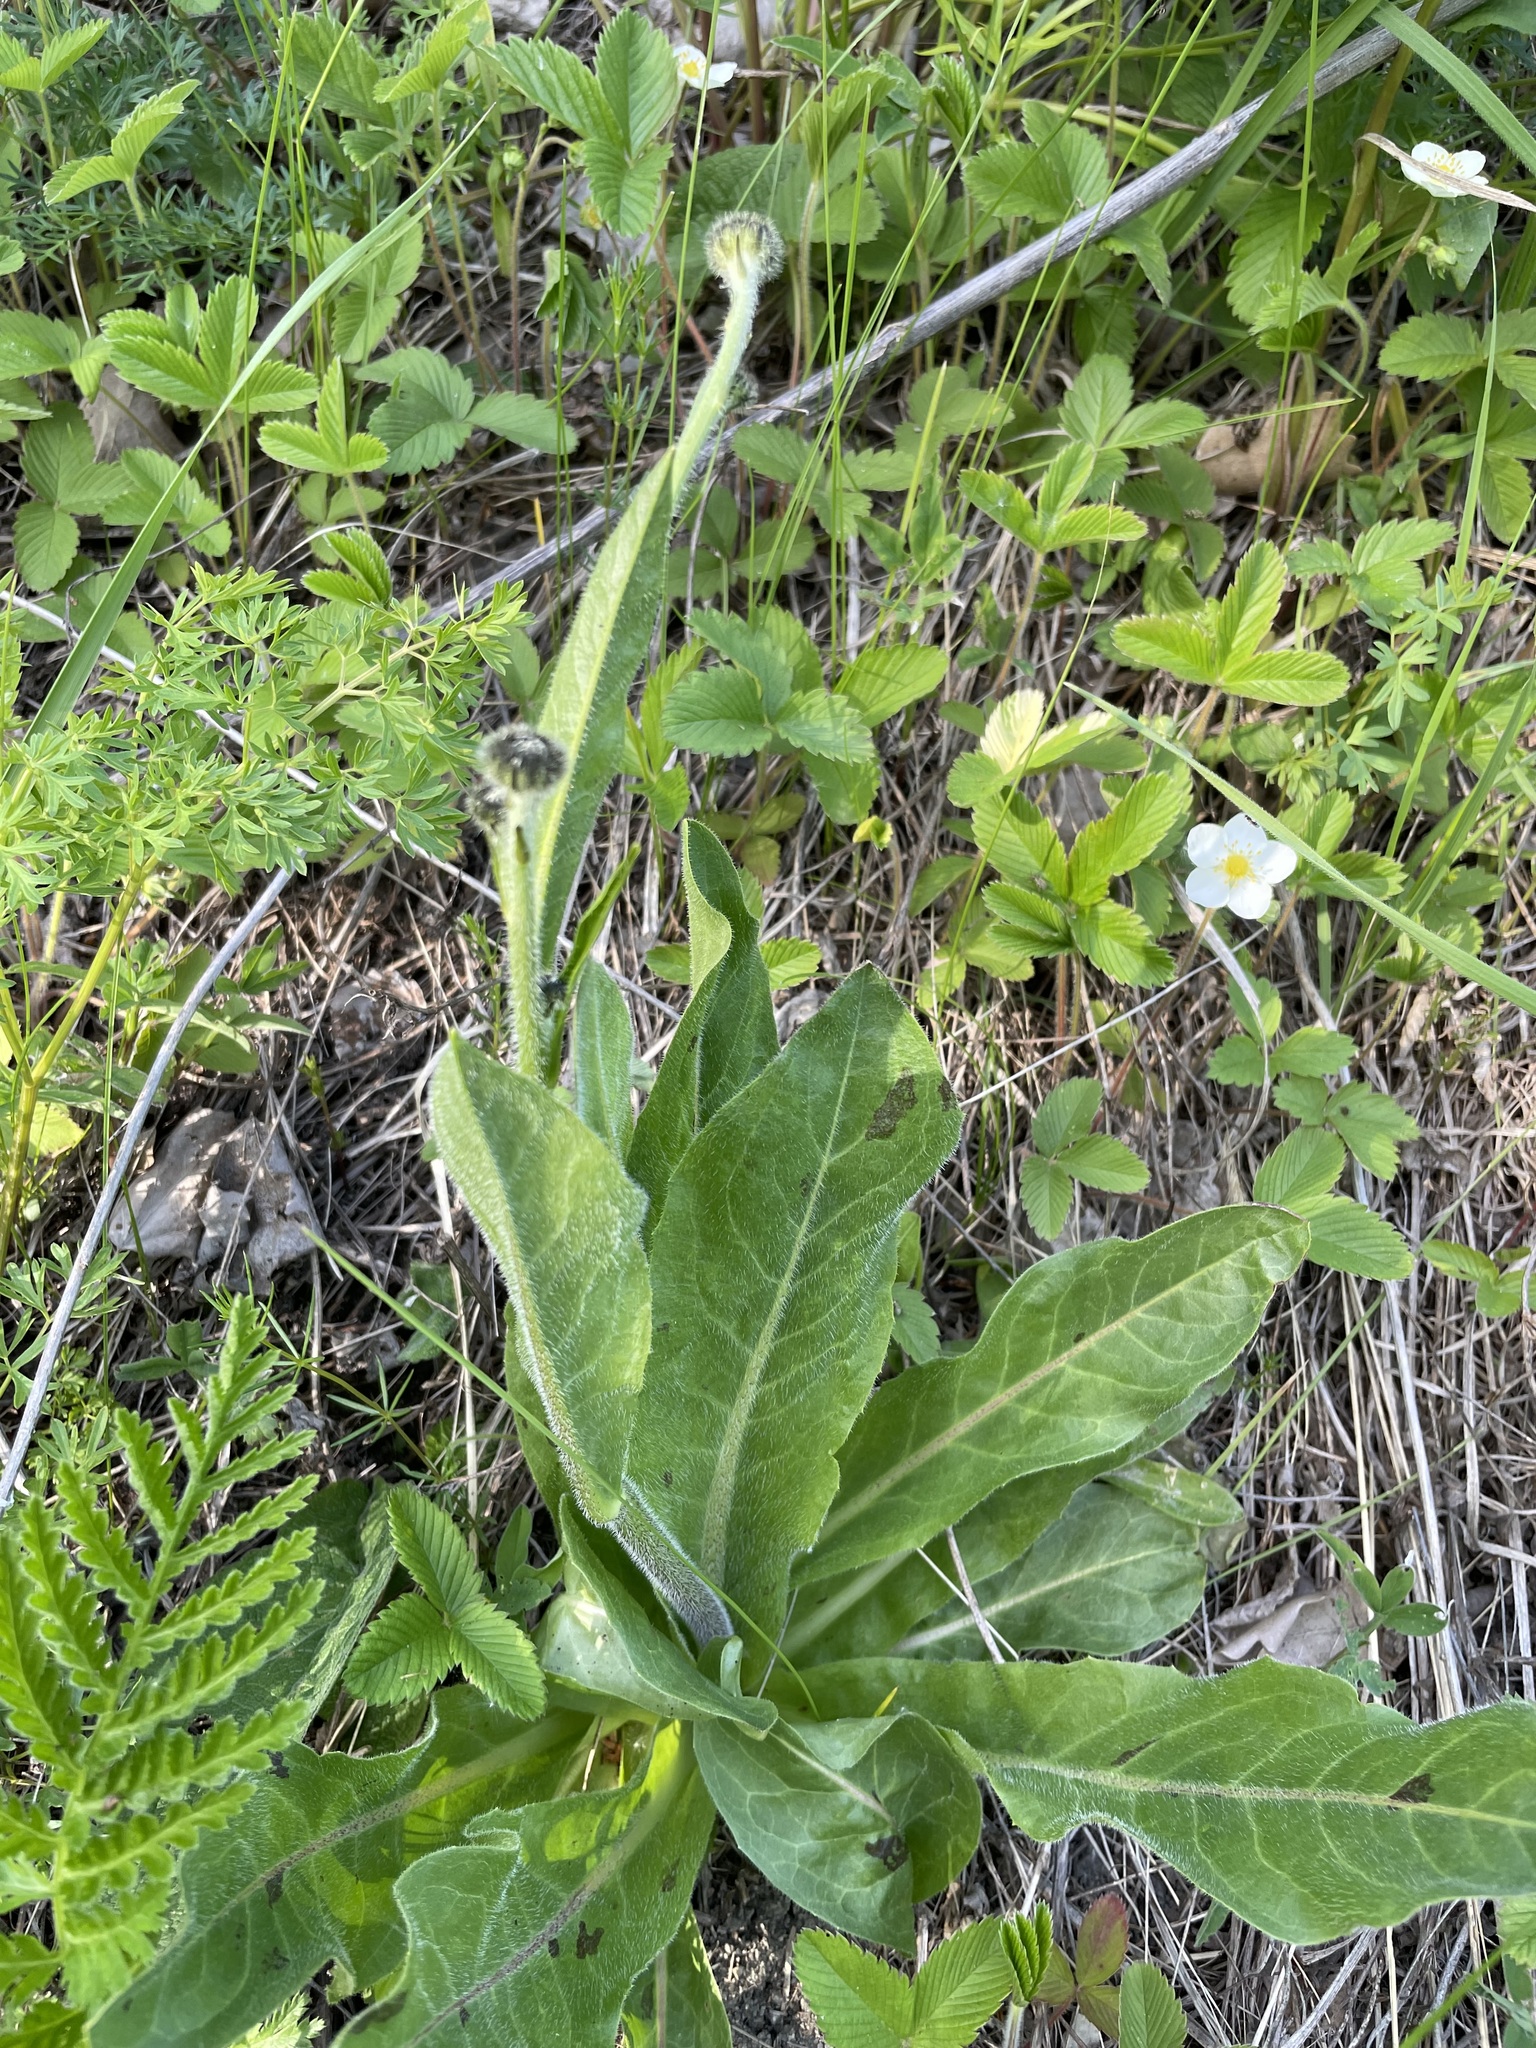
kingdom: Plantae
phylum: Tracheophyta
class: Magnoliopsida
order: Asterales
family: Asteraceae
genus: Trommsdorffia
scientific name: Trommsdorffia maculata
